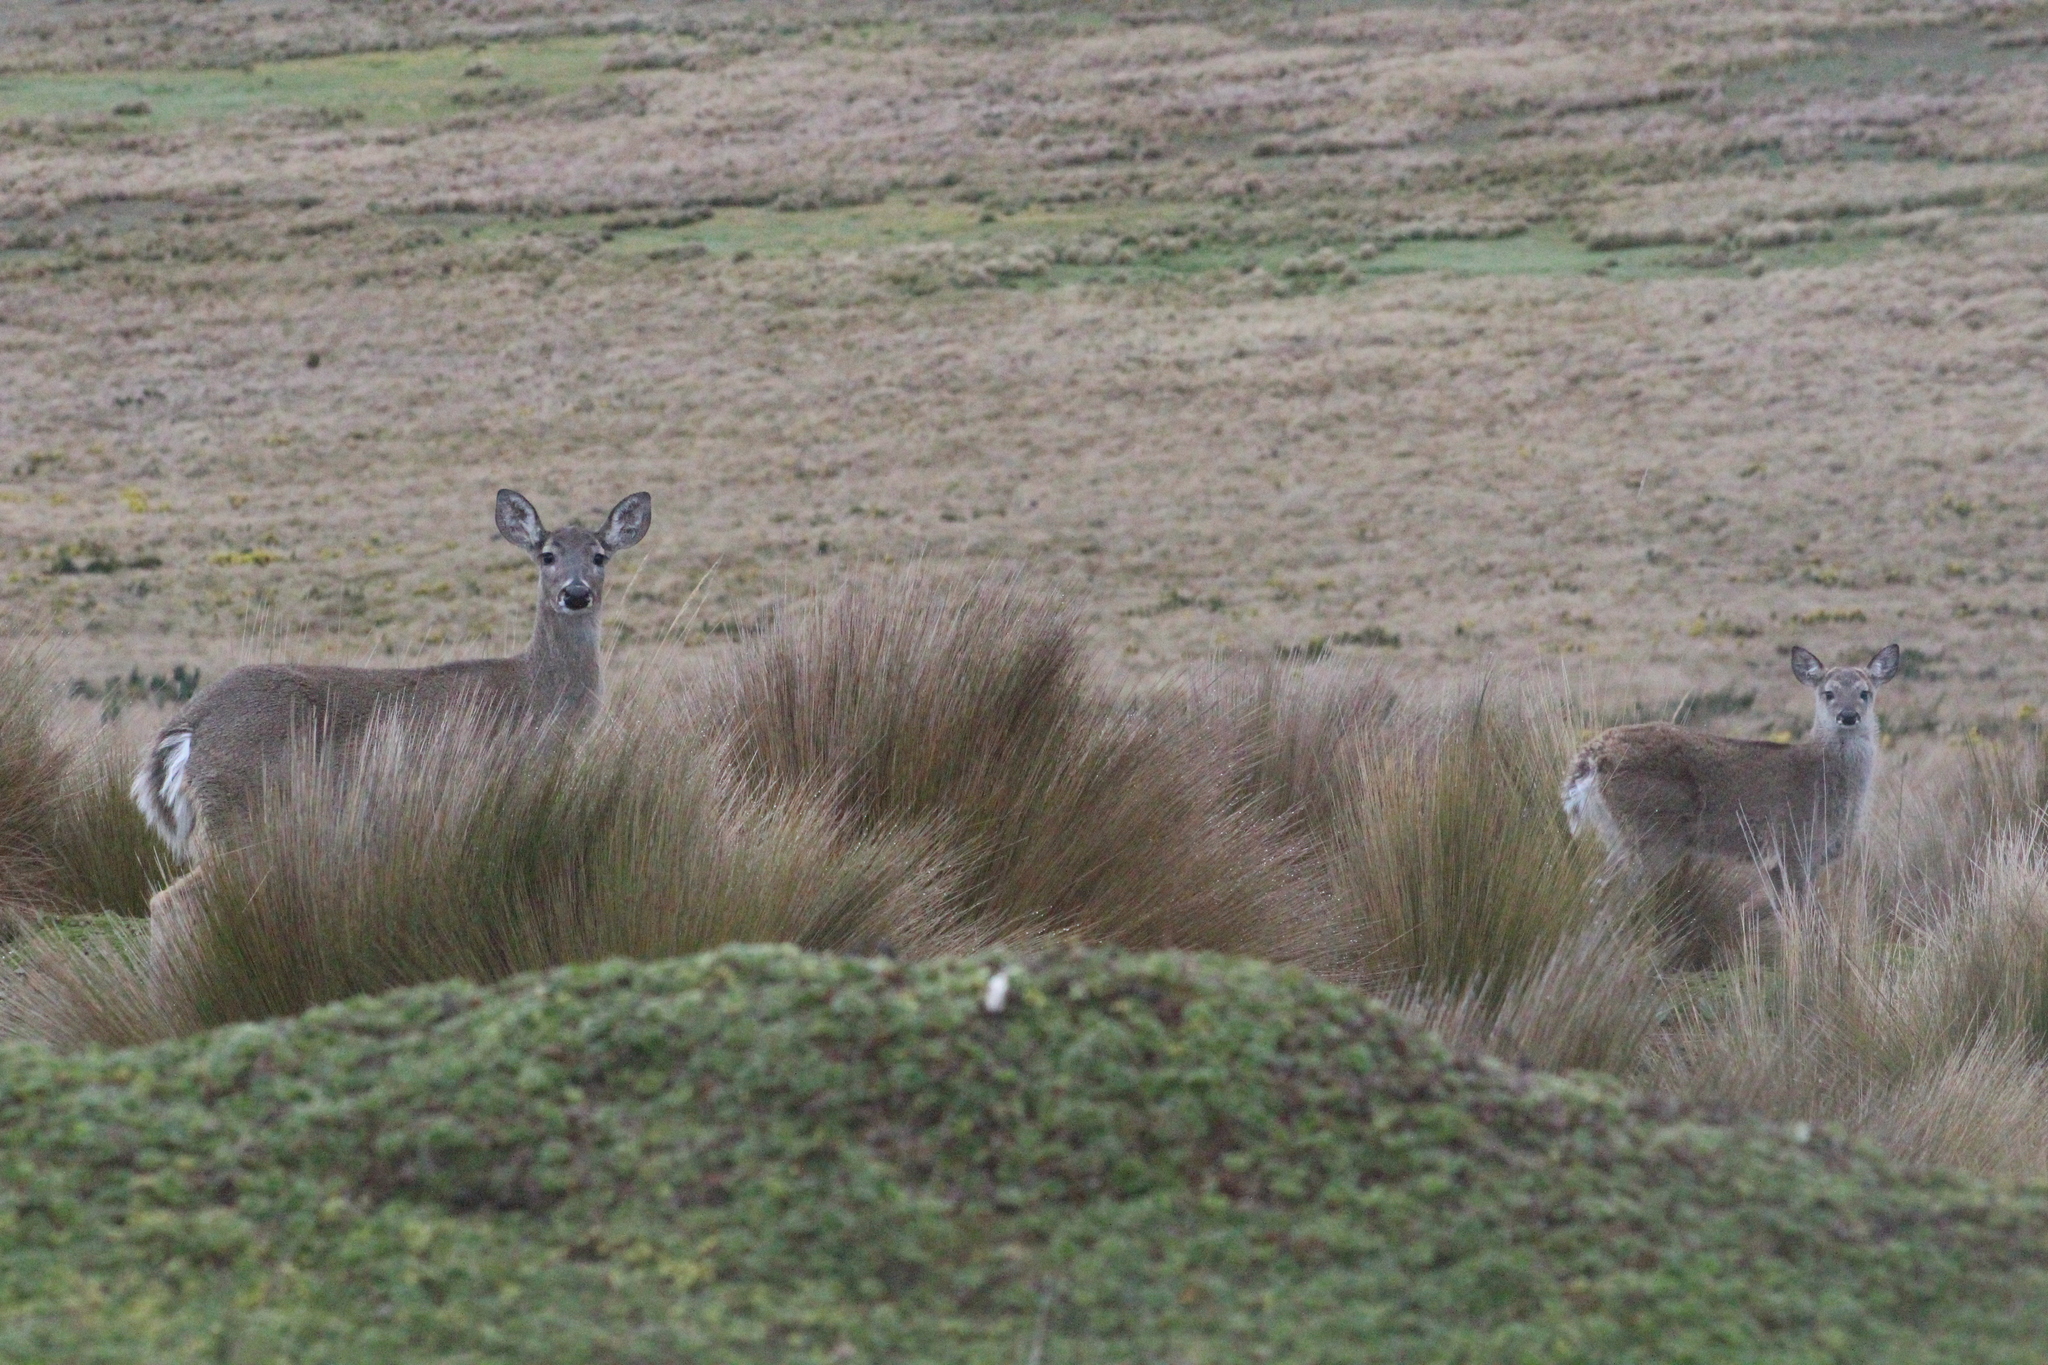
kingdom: Animalia
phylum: Chordata
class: Mammalia
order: Artiodactyla
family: Cervidae
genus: Odocoileus
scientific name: Odocoileus virginianus
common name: White-tailed deer
